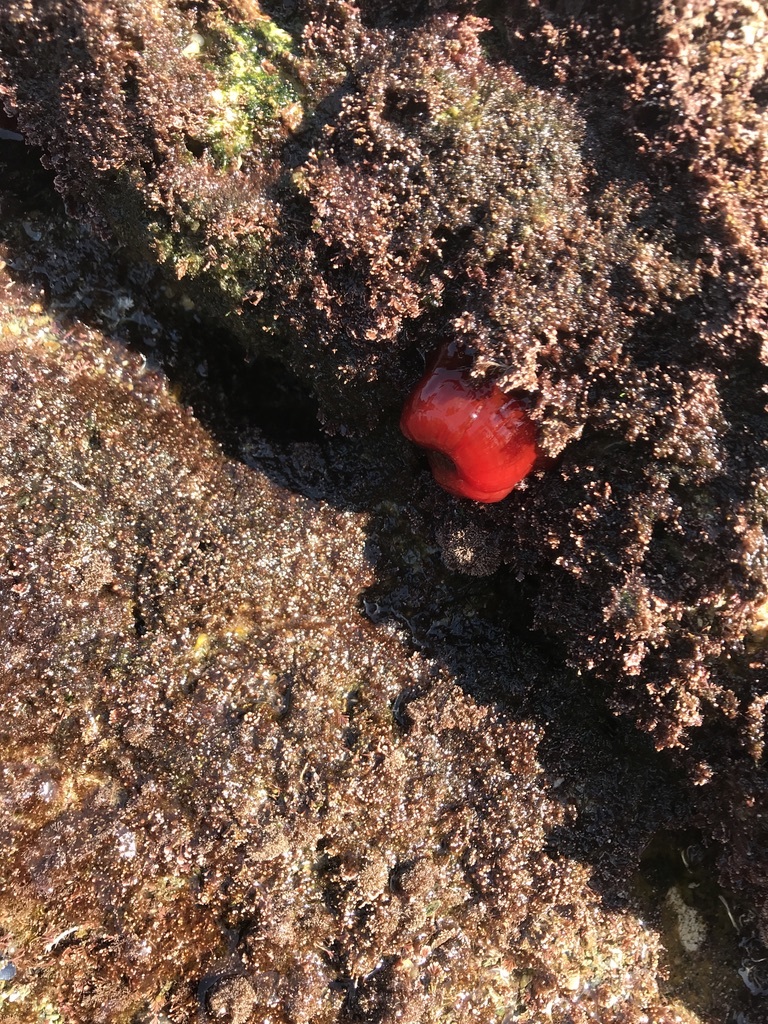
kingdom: Animalia
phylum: Cnidaria
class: Anthozoa
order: Actiniaria
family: Actiniidae
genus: Actinia
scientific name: Actinia equina
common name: Beadlet anemone
